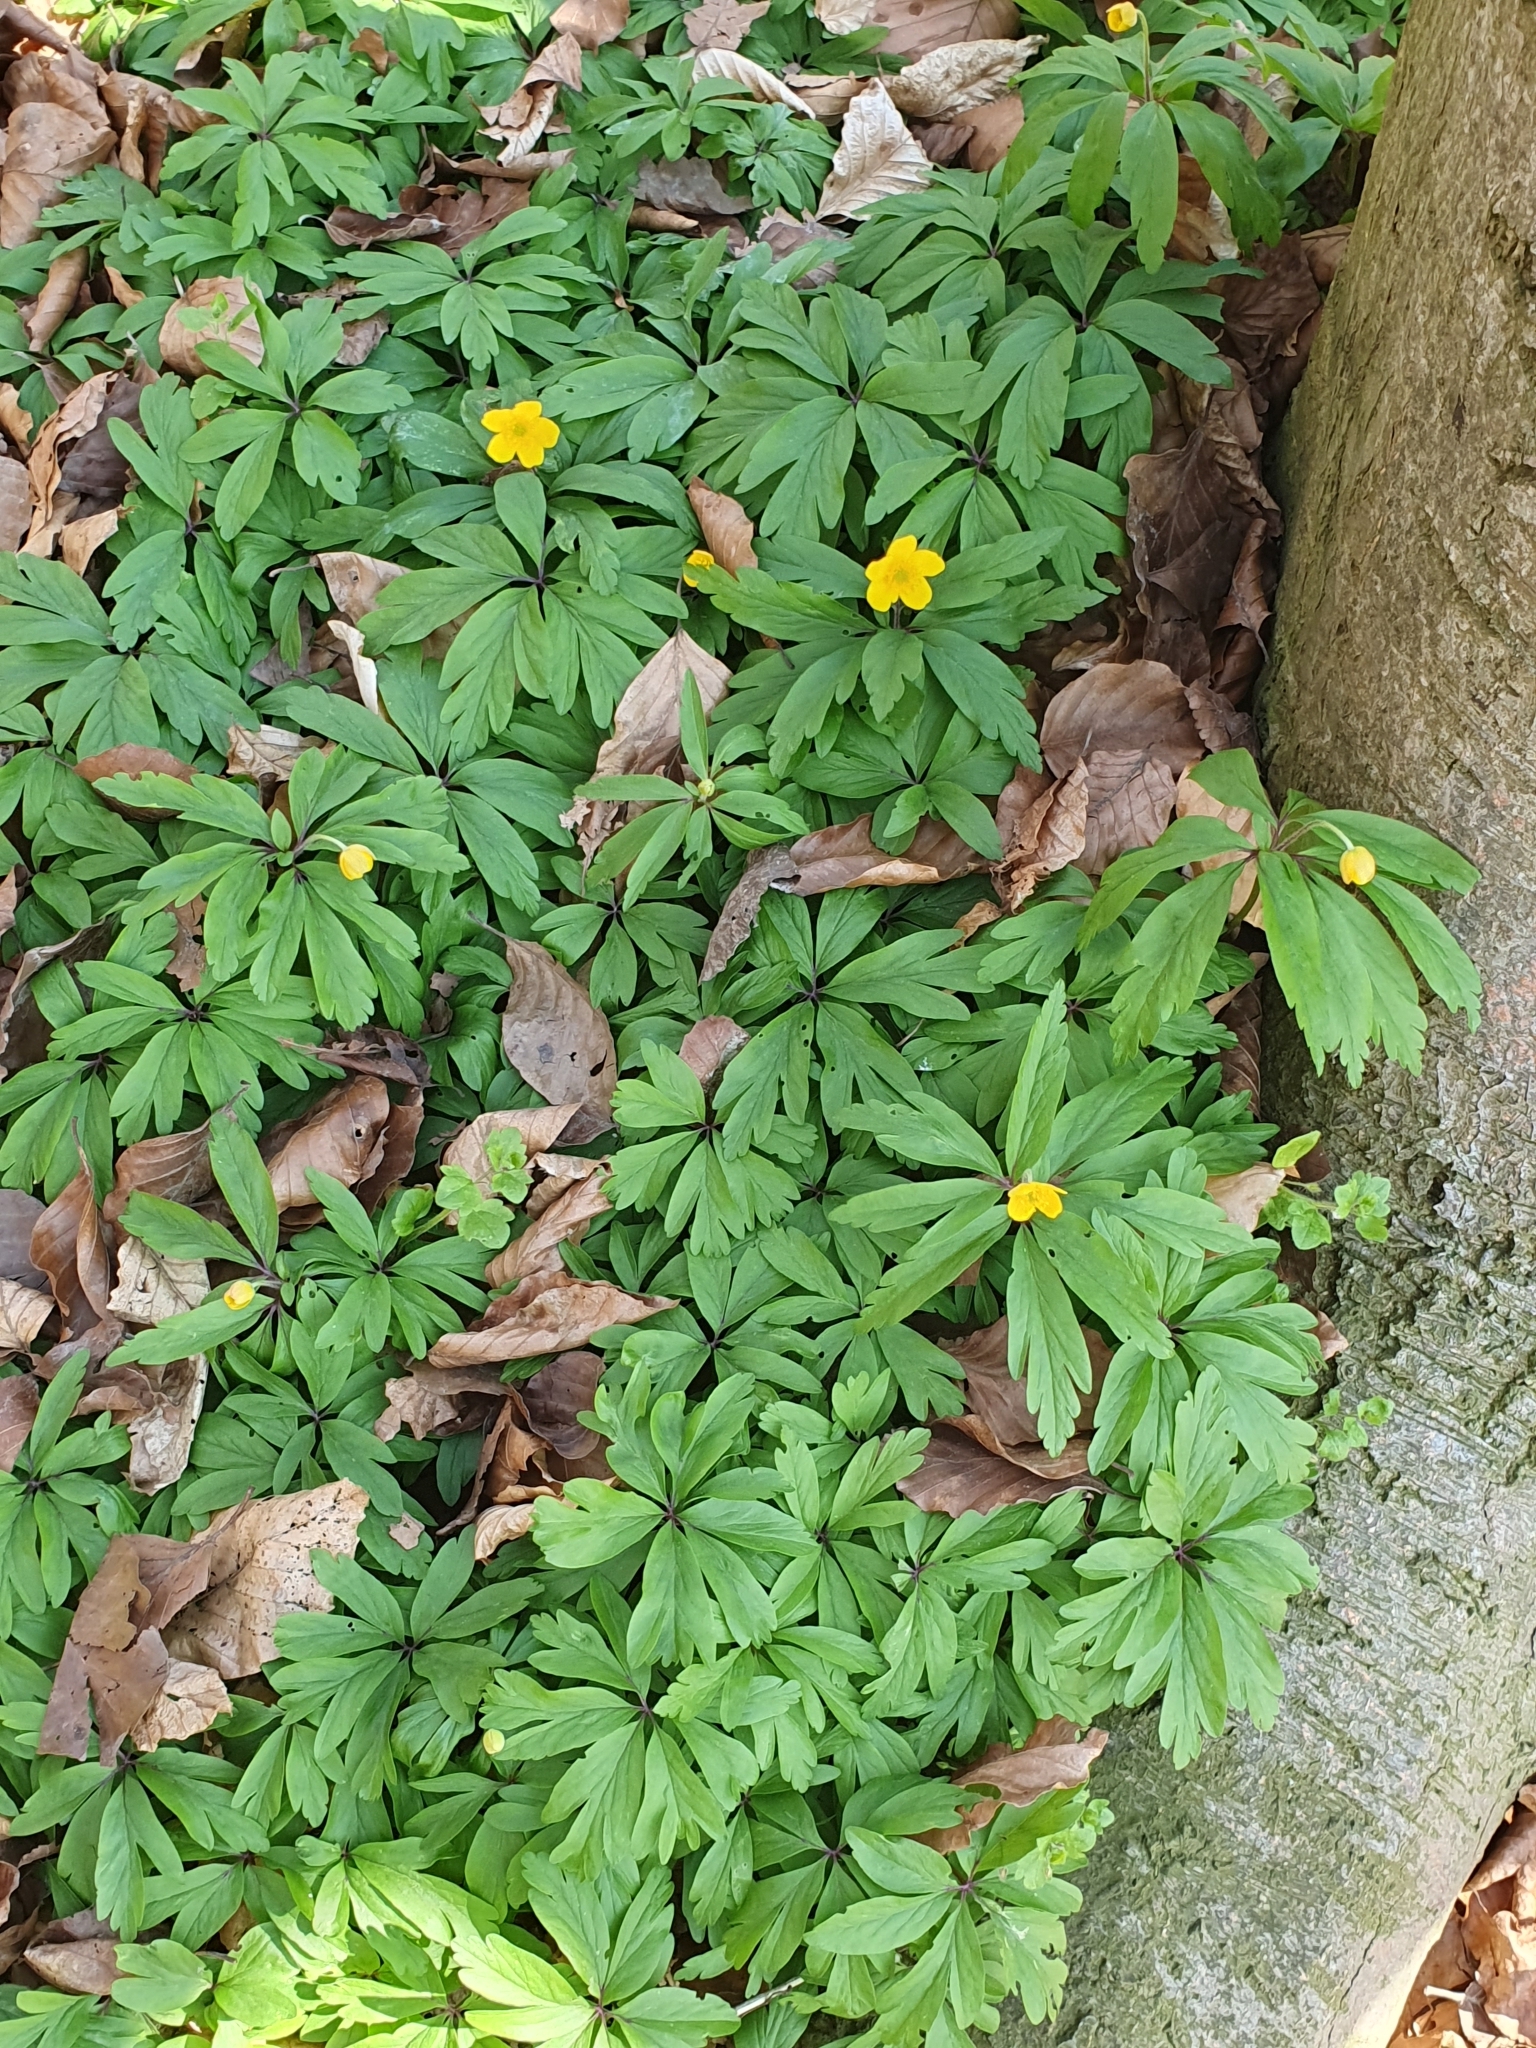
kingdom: Plantae
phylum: Tracheophyta
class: Magnoliopsida
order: Ranunculales
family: Ranunculaceae
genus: Anemone
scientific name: Anemone ranunculoides
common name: Yellow anemone
